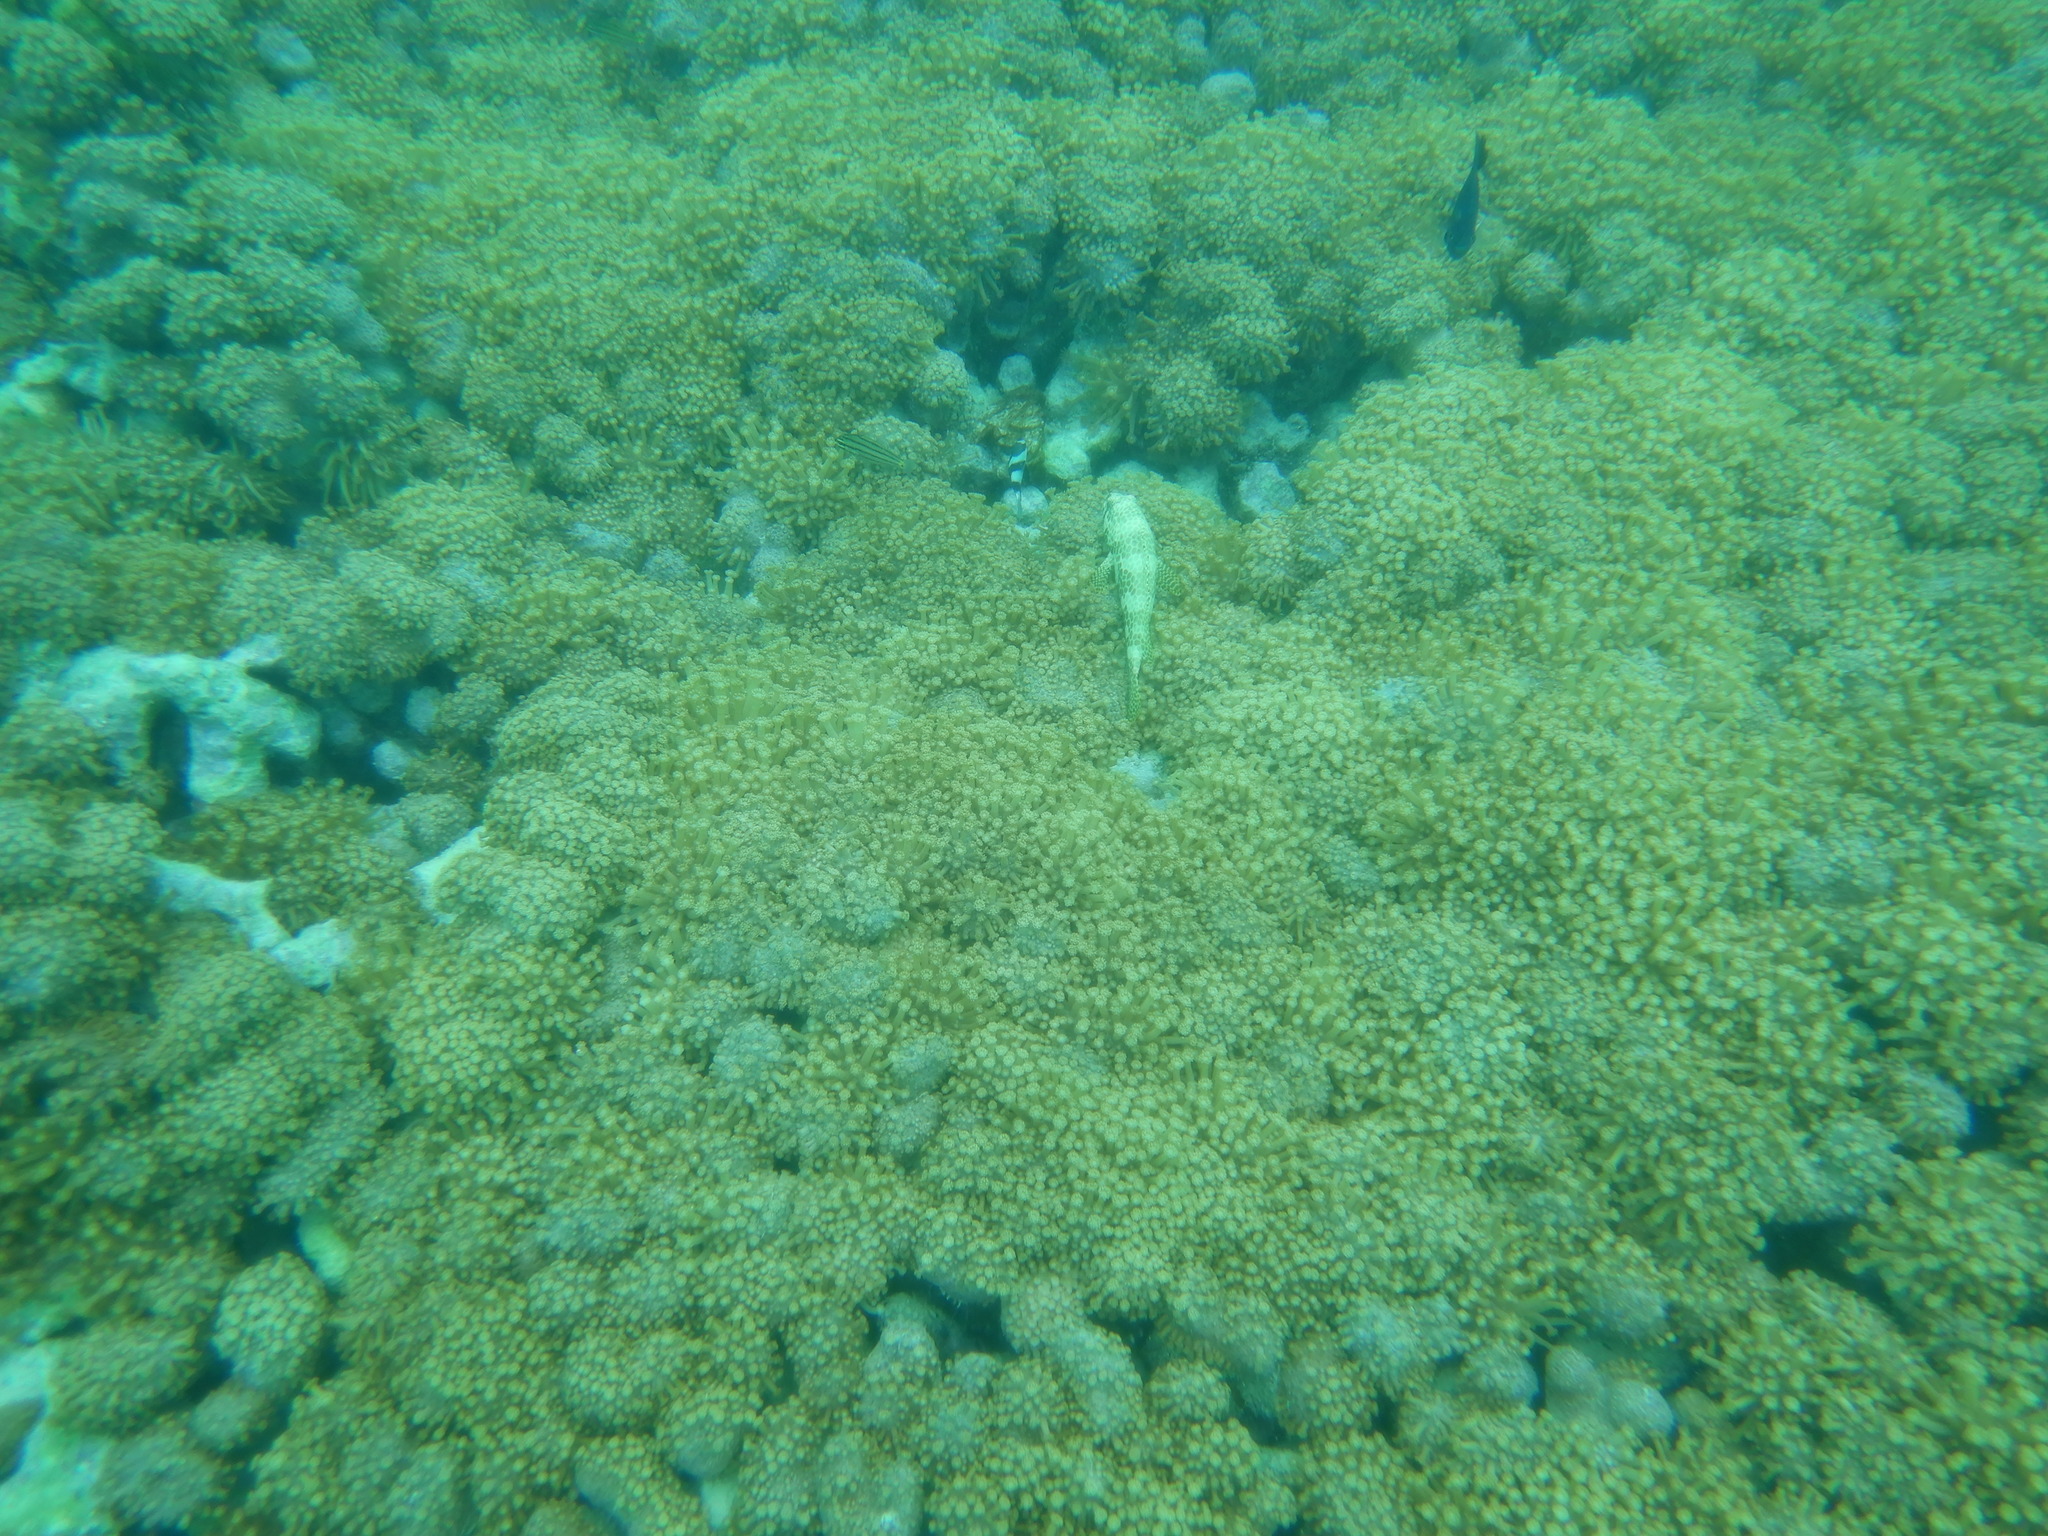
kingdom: Animalia
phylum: Chordata
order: Perciformes
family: Serranidae
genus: Epinephelus
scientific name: Epinephelus merra
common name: Honeycomb grouper
